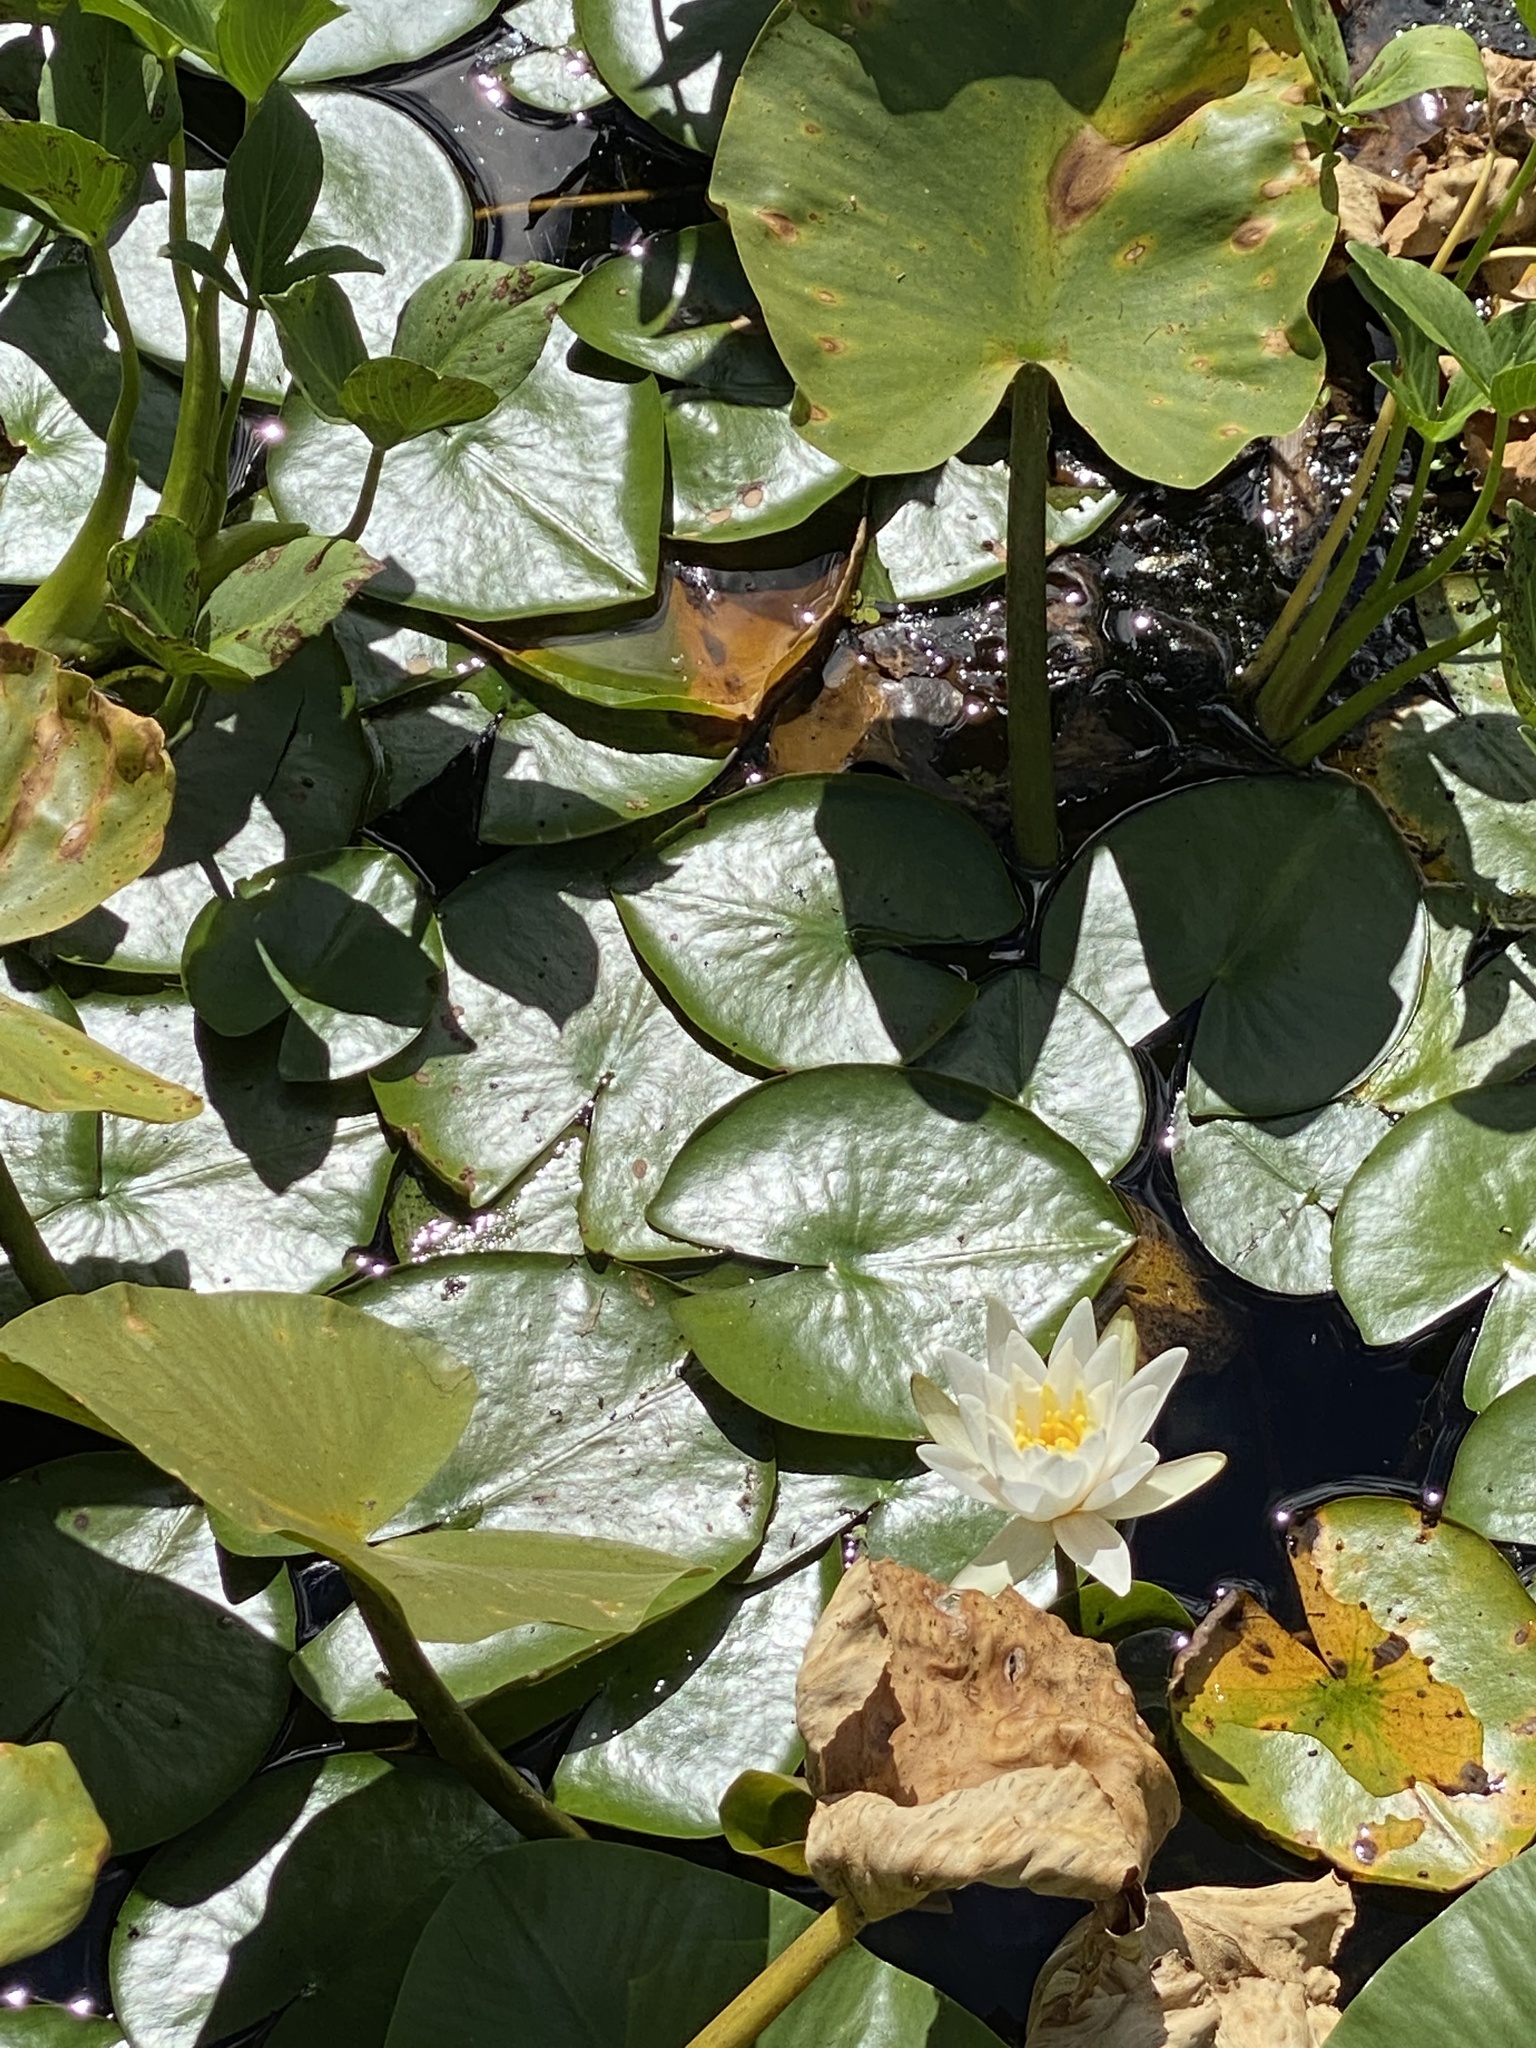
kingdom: Plantae
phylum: Tracheophyta
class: Magnoliopsida
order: Nymphaeales
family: Nymphaeaceae
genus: Nymphaea
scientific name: Nymphaea odorata
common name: Fragrant water-lily
